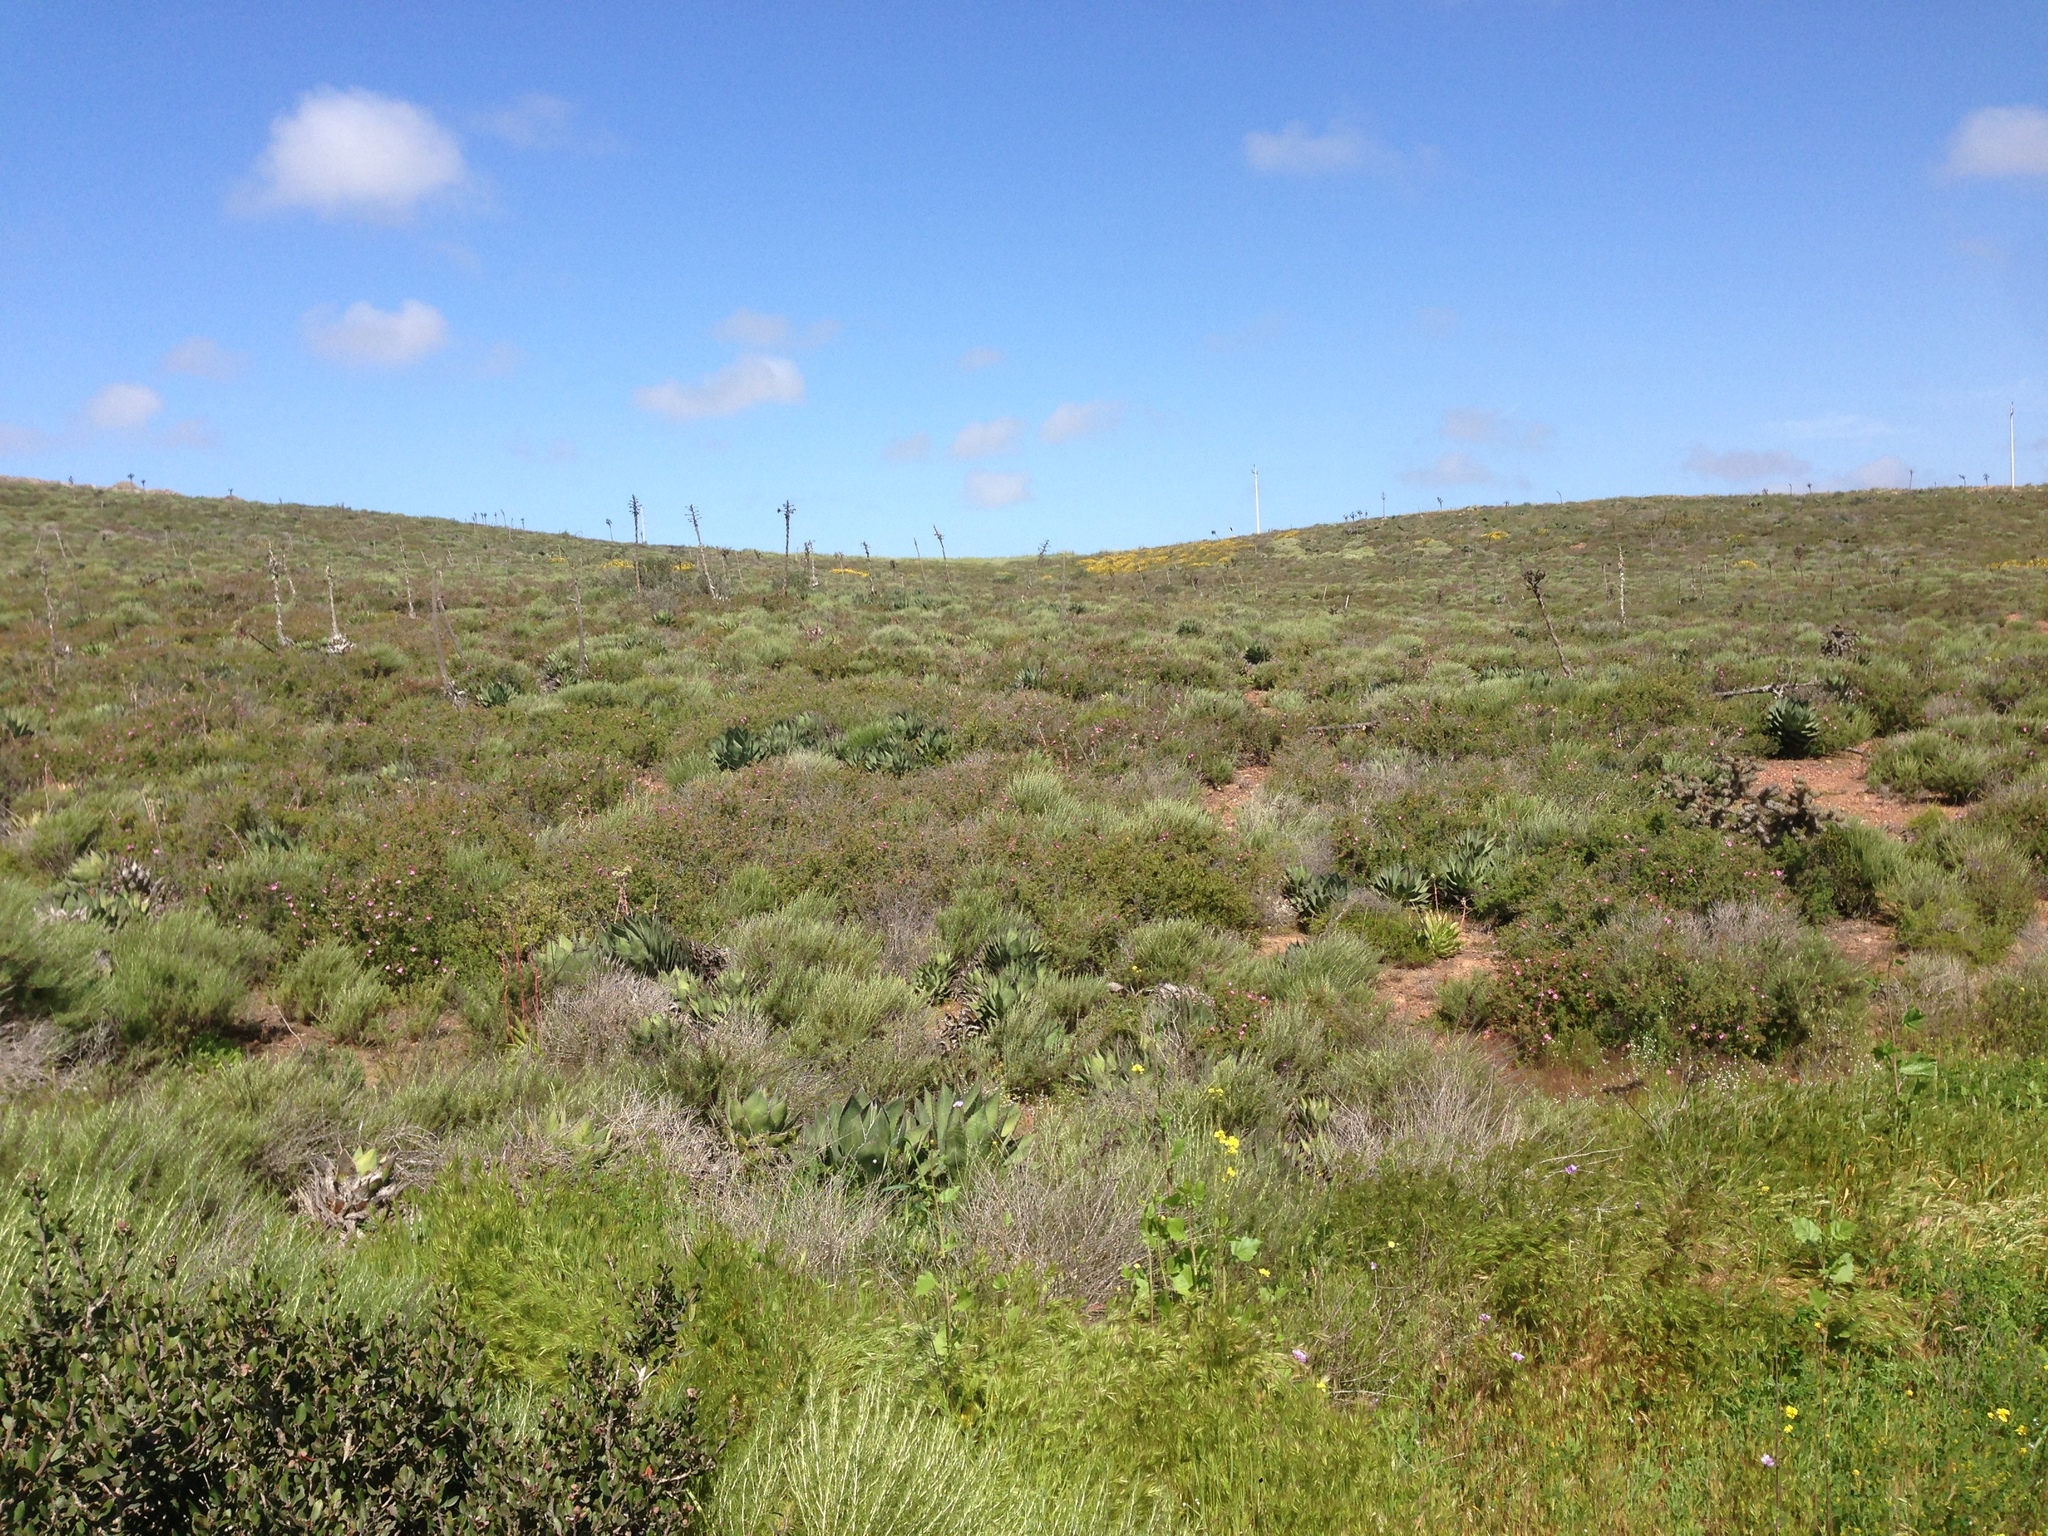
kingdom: Plantae
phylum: Tracheophyta
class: Liliopsida
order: Asparagales
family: Asparagaceae
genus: Agave
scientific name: Agave shawii
